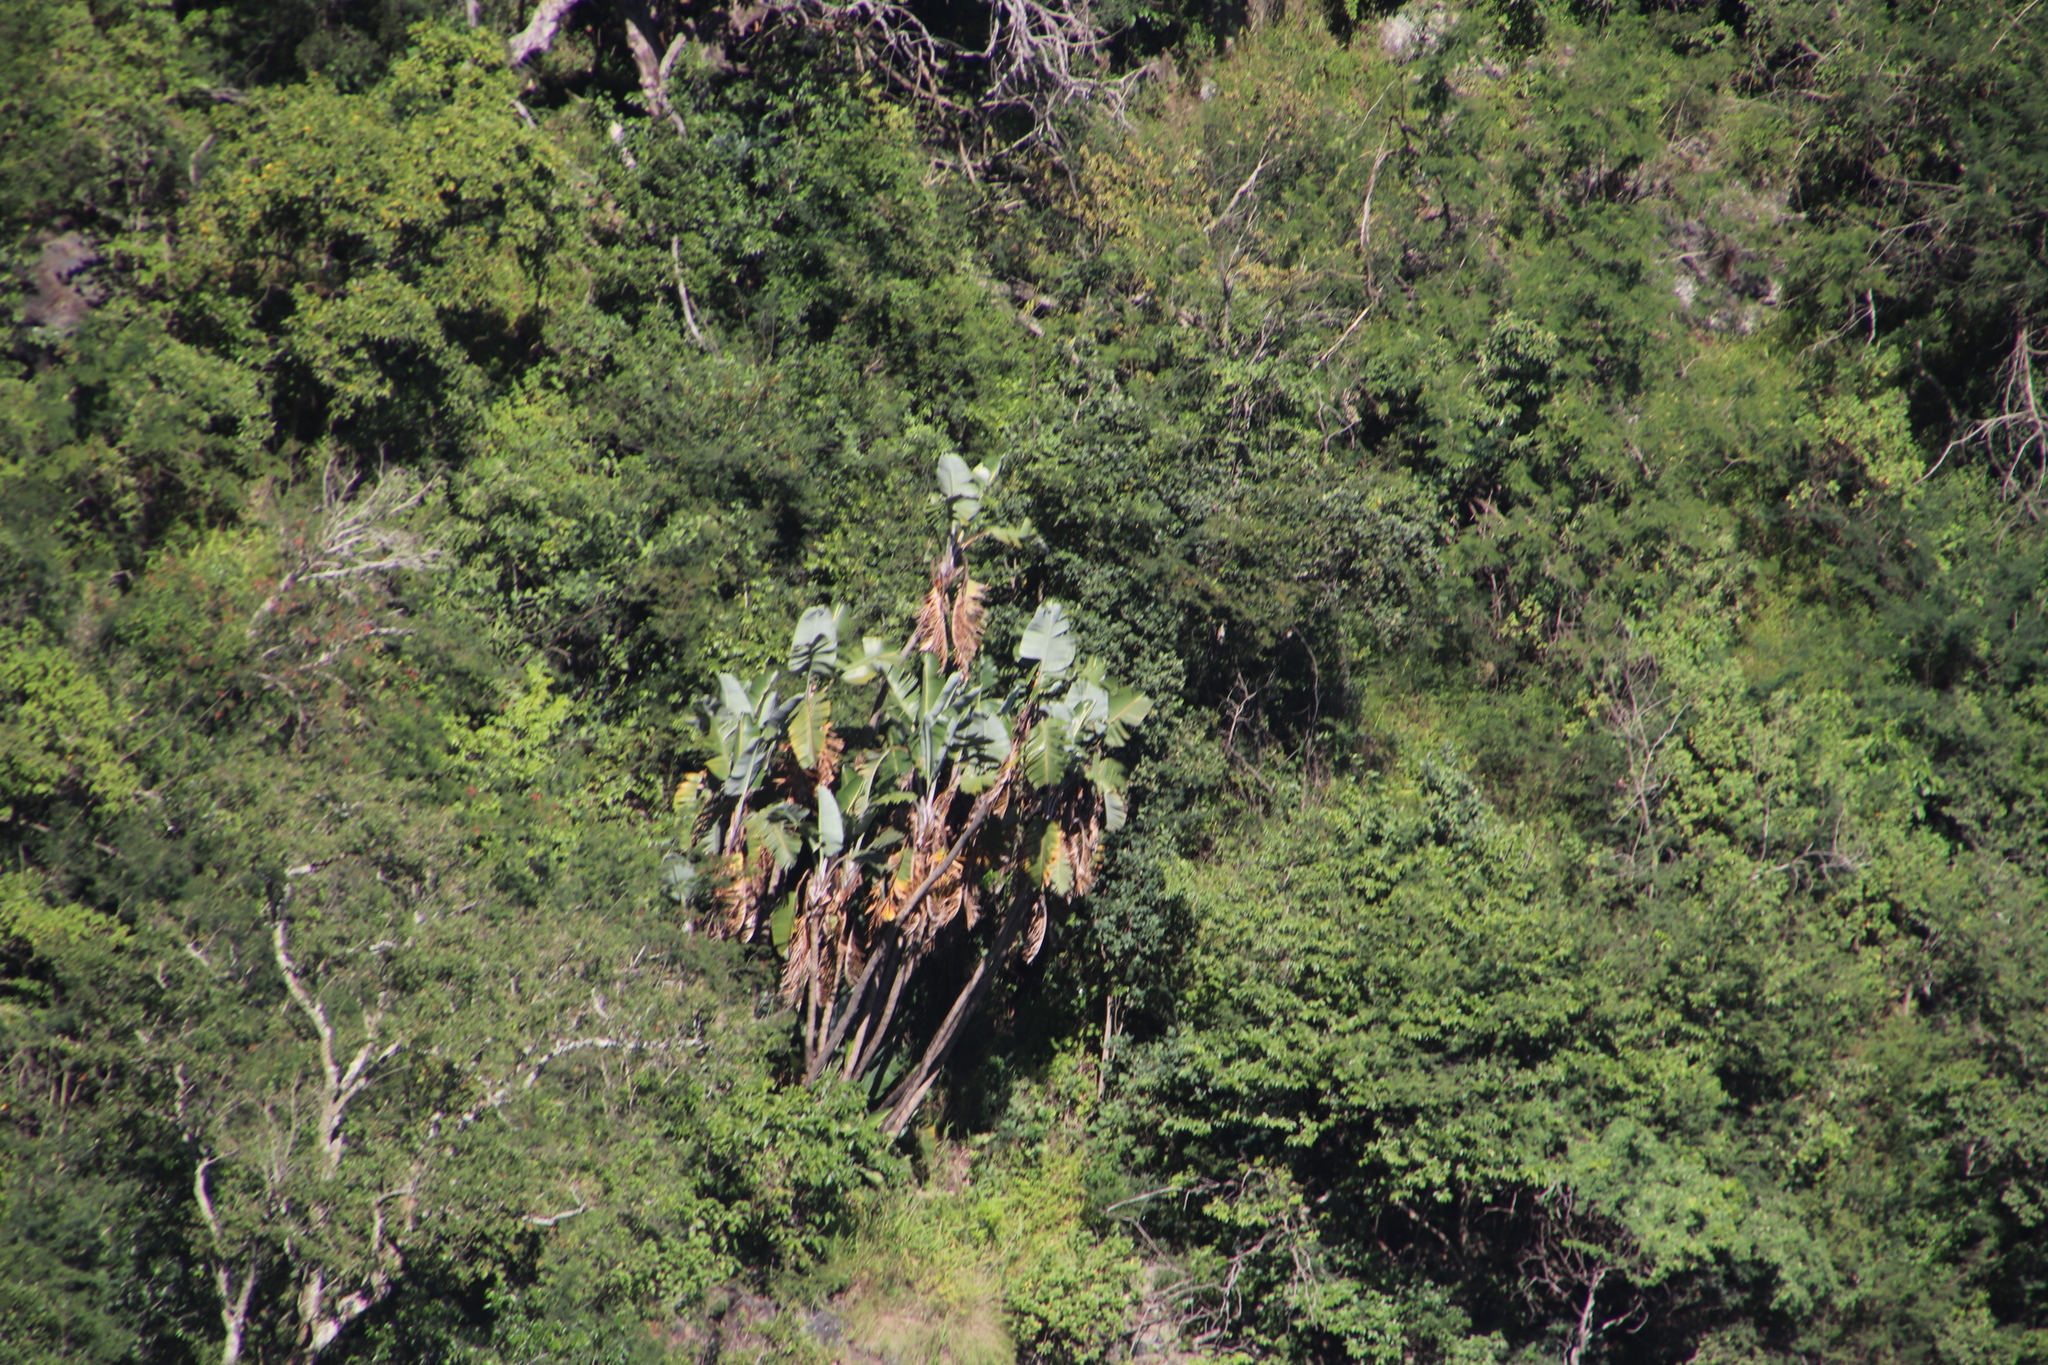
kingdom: Plantae
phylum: Tracheophyta
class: Liliopsida
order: Zingiberales
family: Strelitziaceae
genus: Strelitzia
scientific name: Strelitzia caudata
